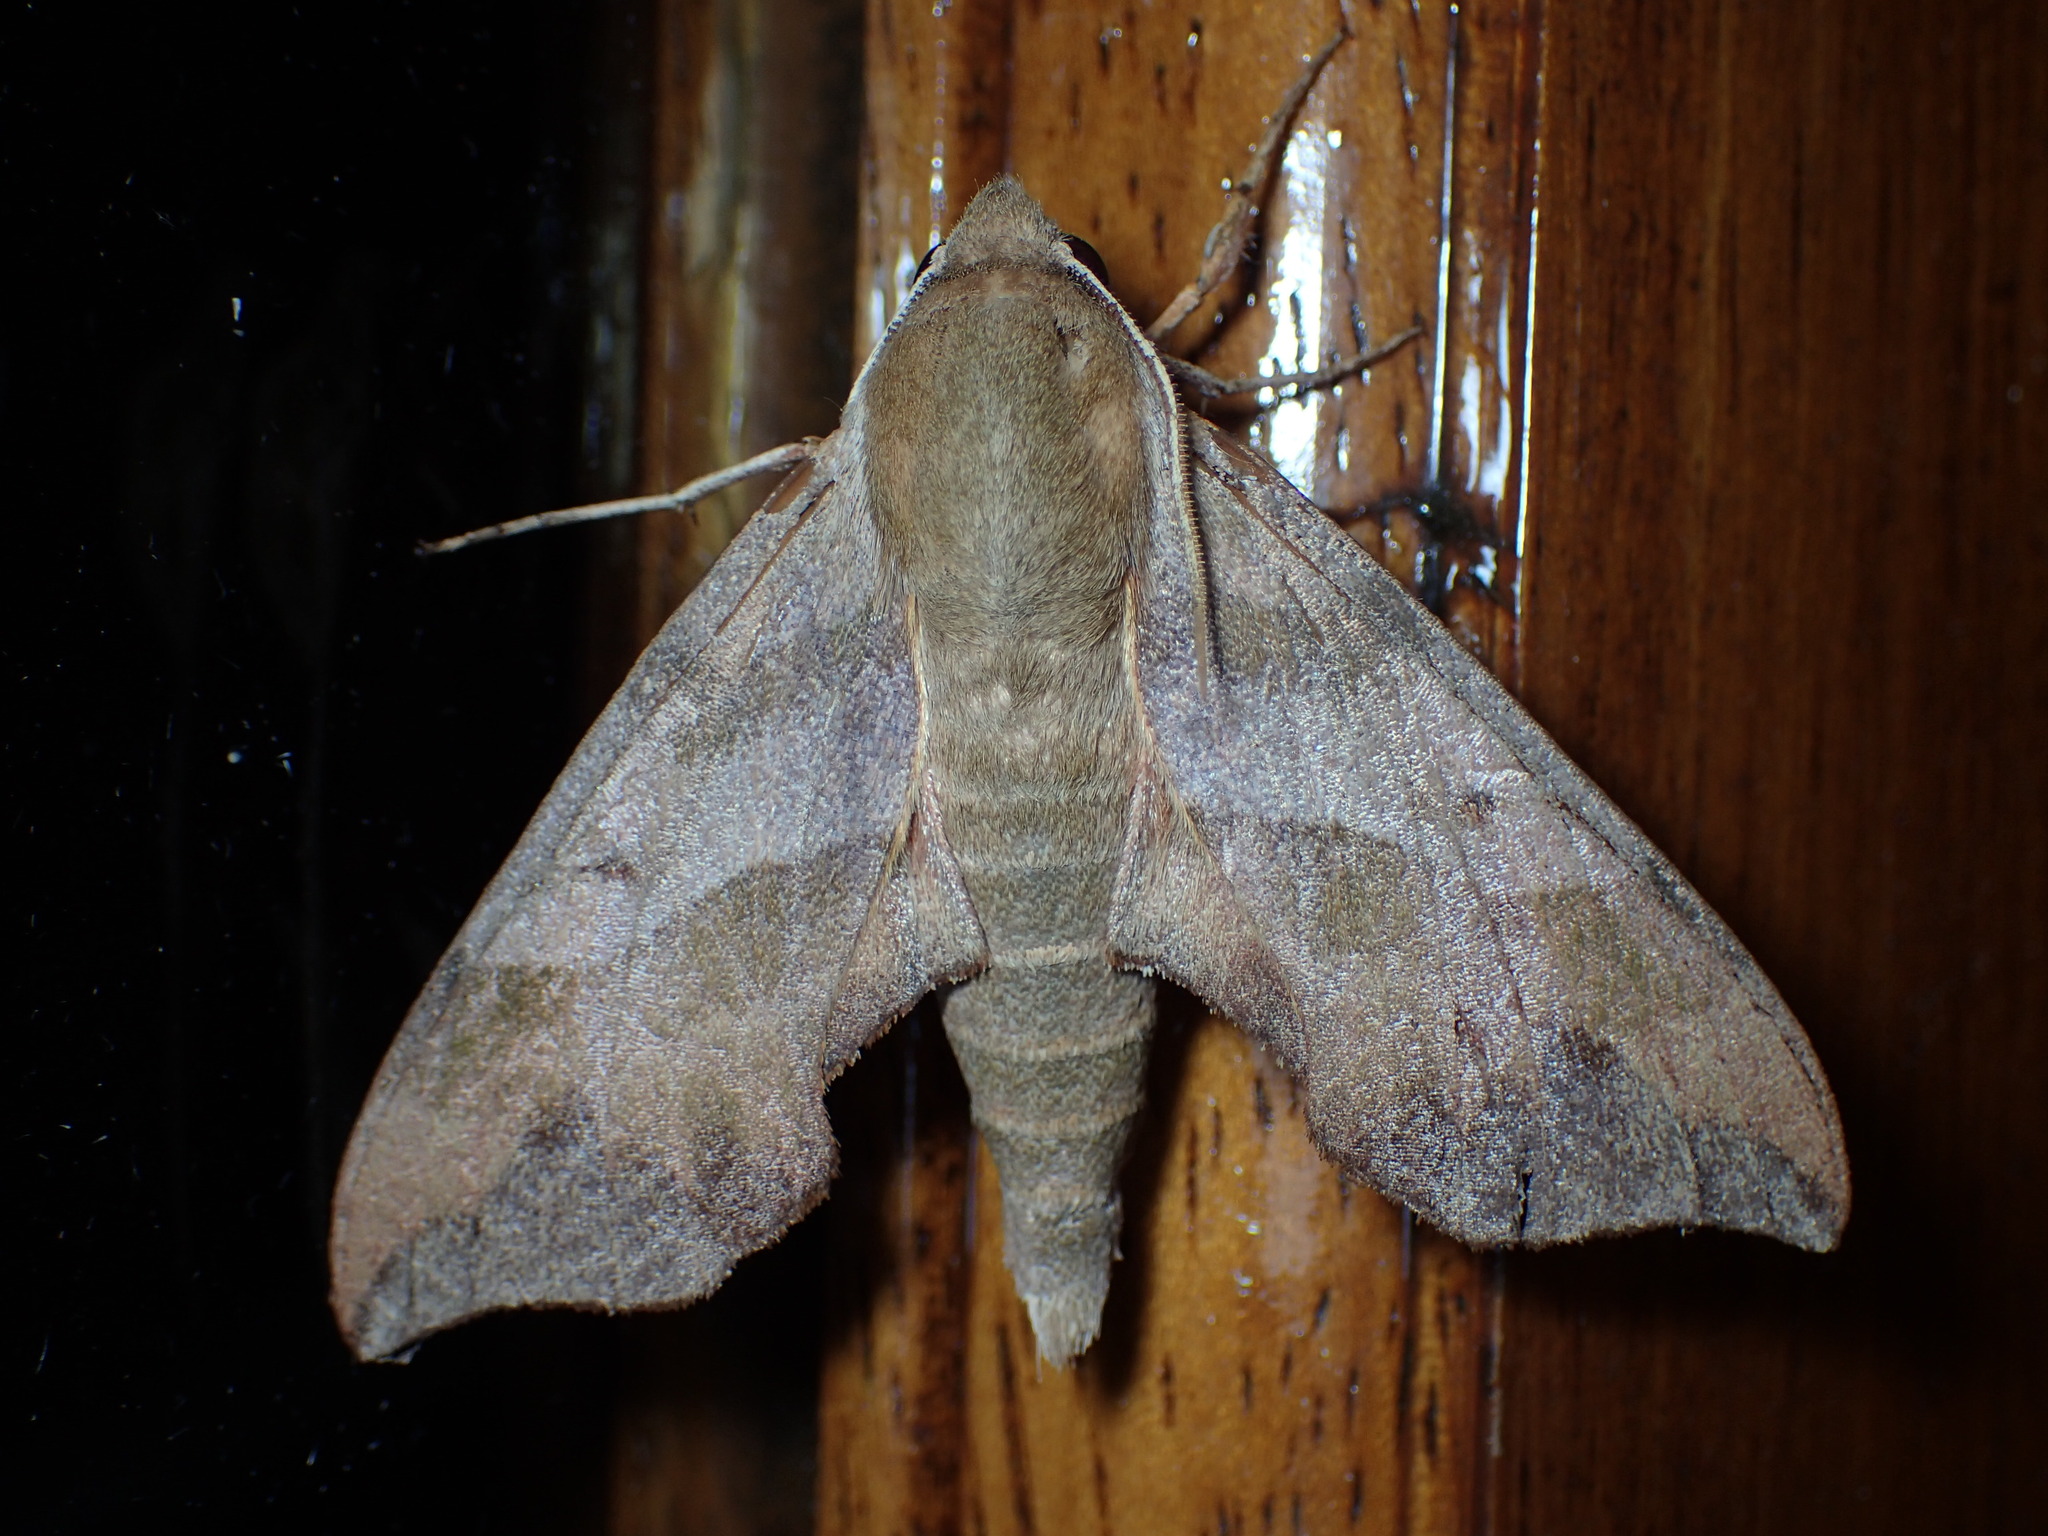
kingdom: Animalia
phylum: Arthropoda
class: Insecta
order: Lepidoptera
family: Sphingidae
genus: Darapsa
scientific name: Darapsa myron
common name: Hog sphinx
